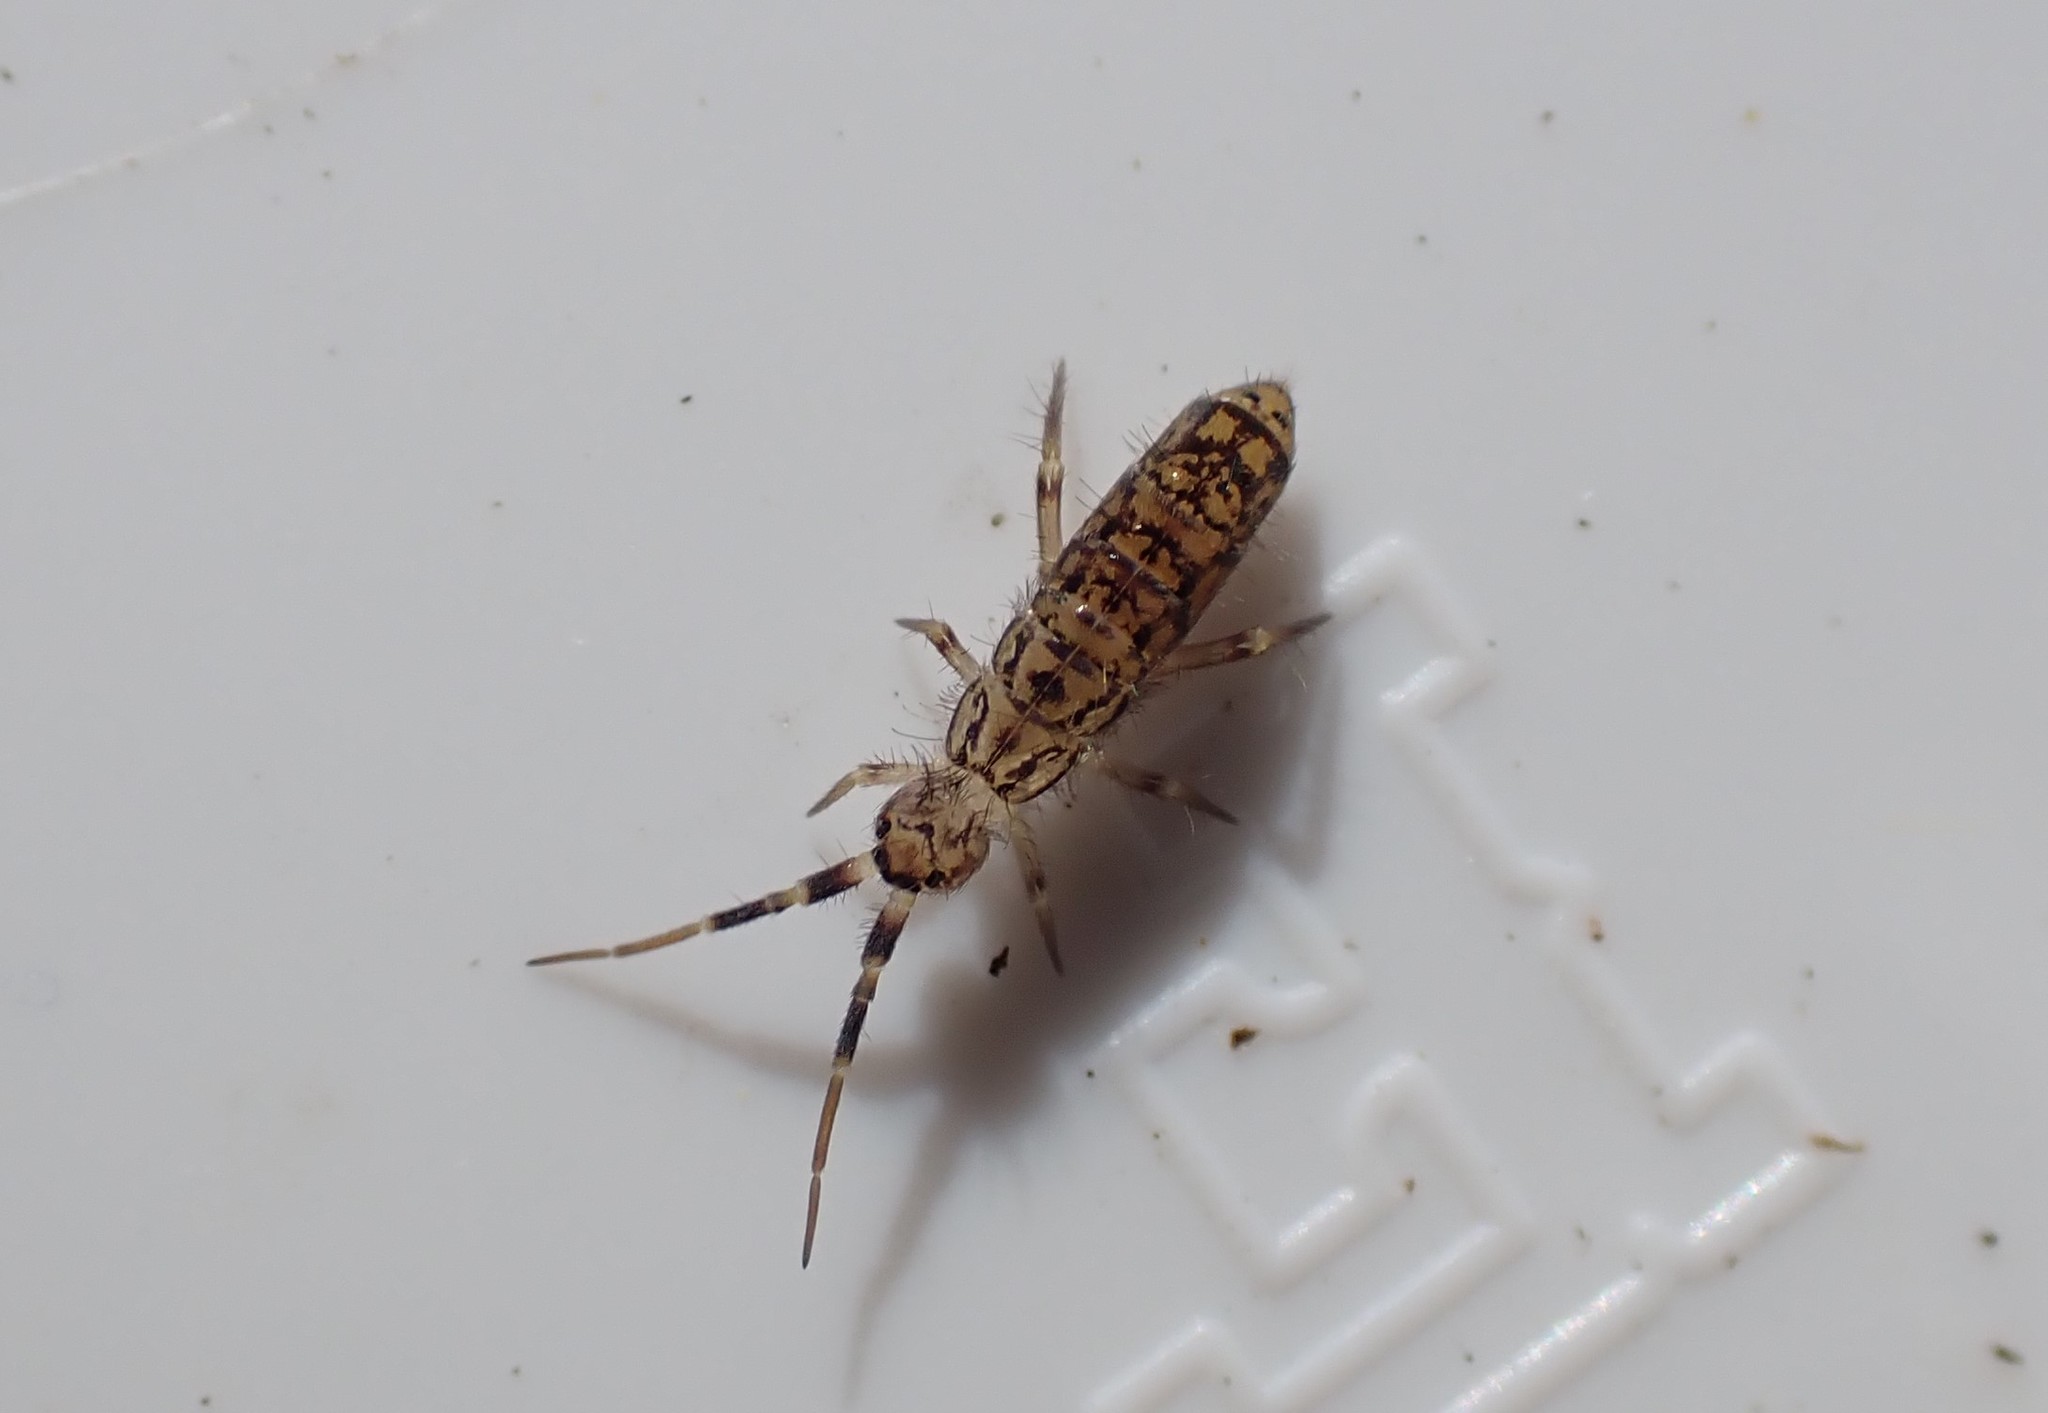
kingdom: Animalia
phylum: Arthropoda
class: Collembola
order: Entomobryomorpha
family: Orchesellidae
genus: Orchesella
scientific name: Orchesella villosa
